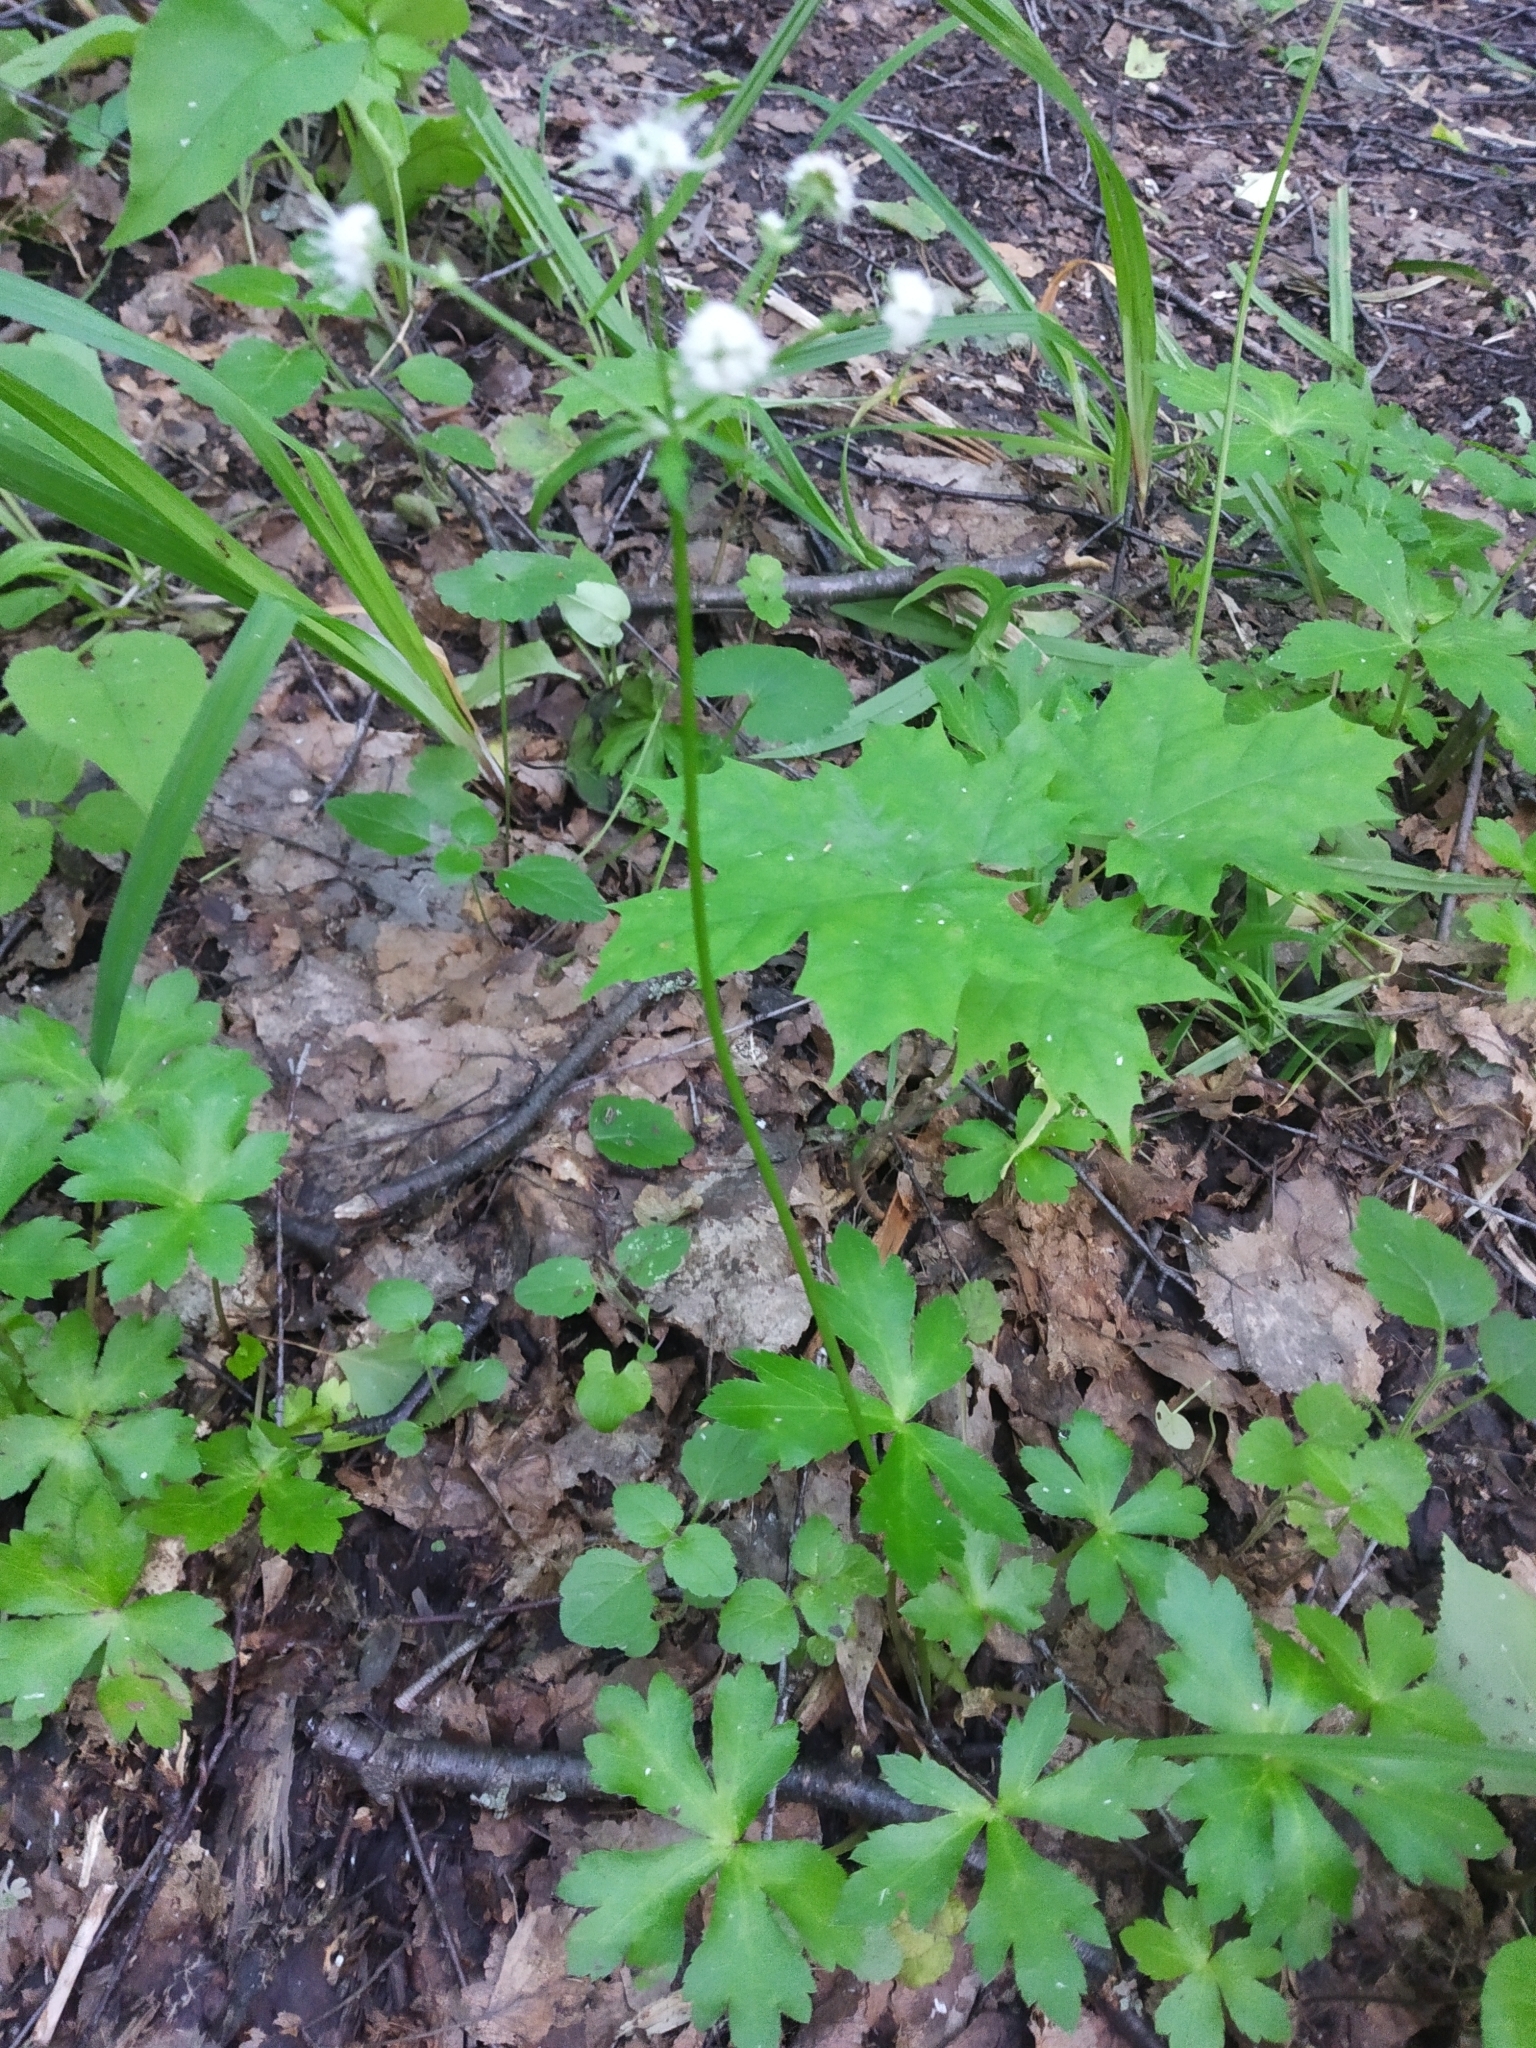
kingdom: Plantae
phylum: Tracheophyta
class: Magnoliopsida
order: Apiales
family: Apiaceae
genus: Sanicula
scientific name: Sanicula europaea
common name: Sanicle
